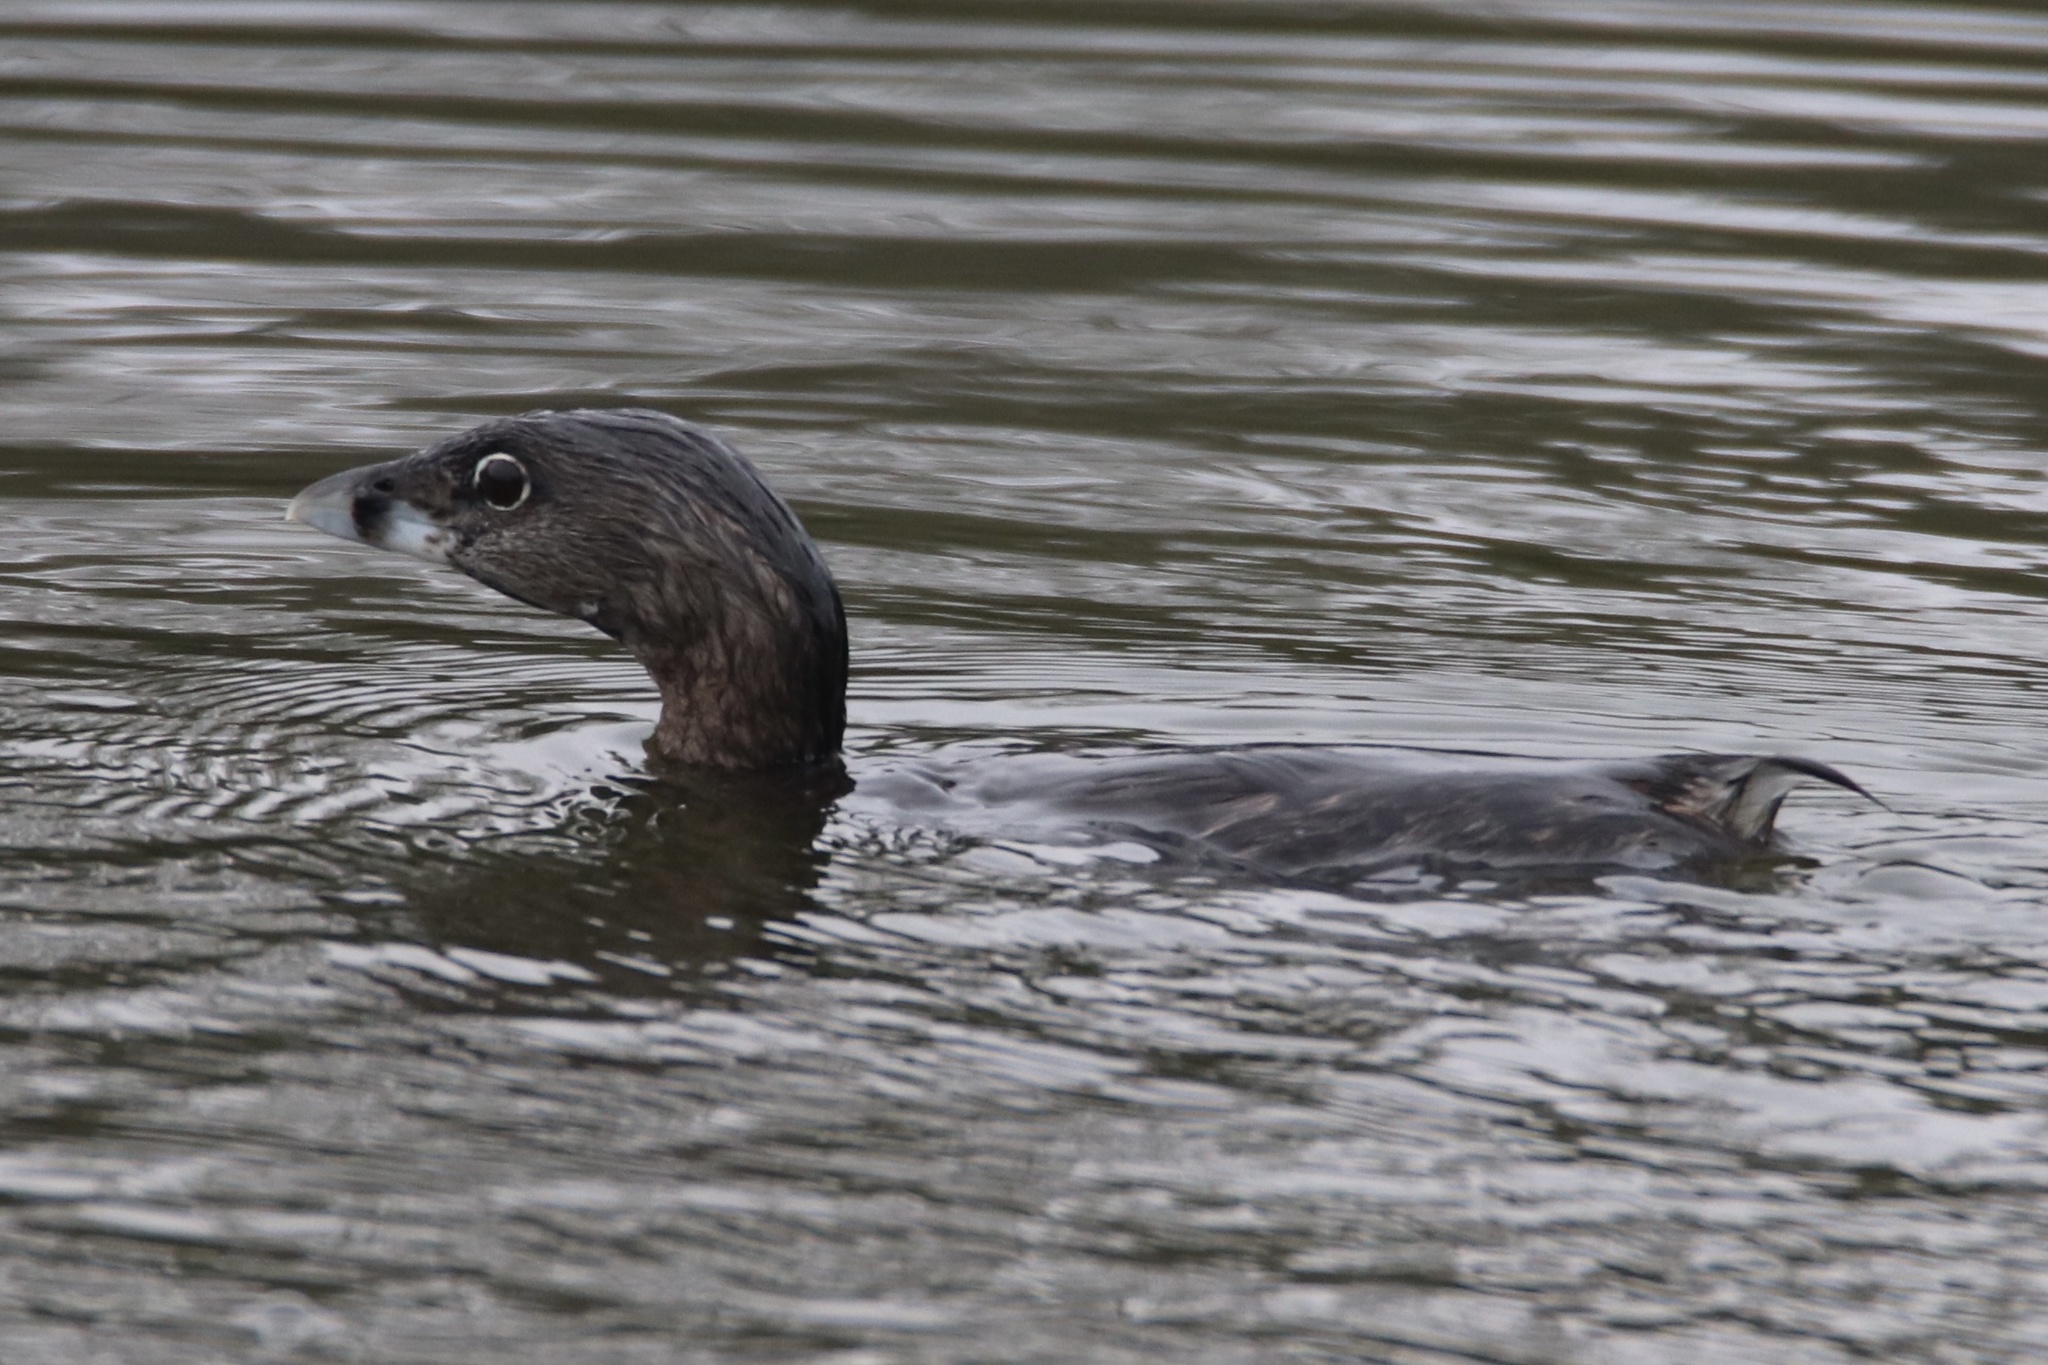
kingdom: Animalia
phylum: Chordata
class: Aves
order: Podicipediformes
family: Podicipedidae
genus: Podilymbus
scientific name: Podilymbus podiceps
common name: Pied-billed grebe
